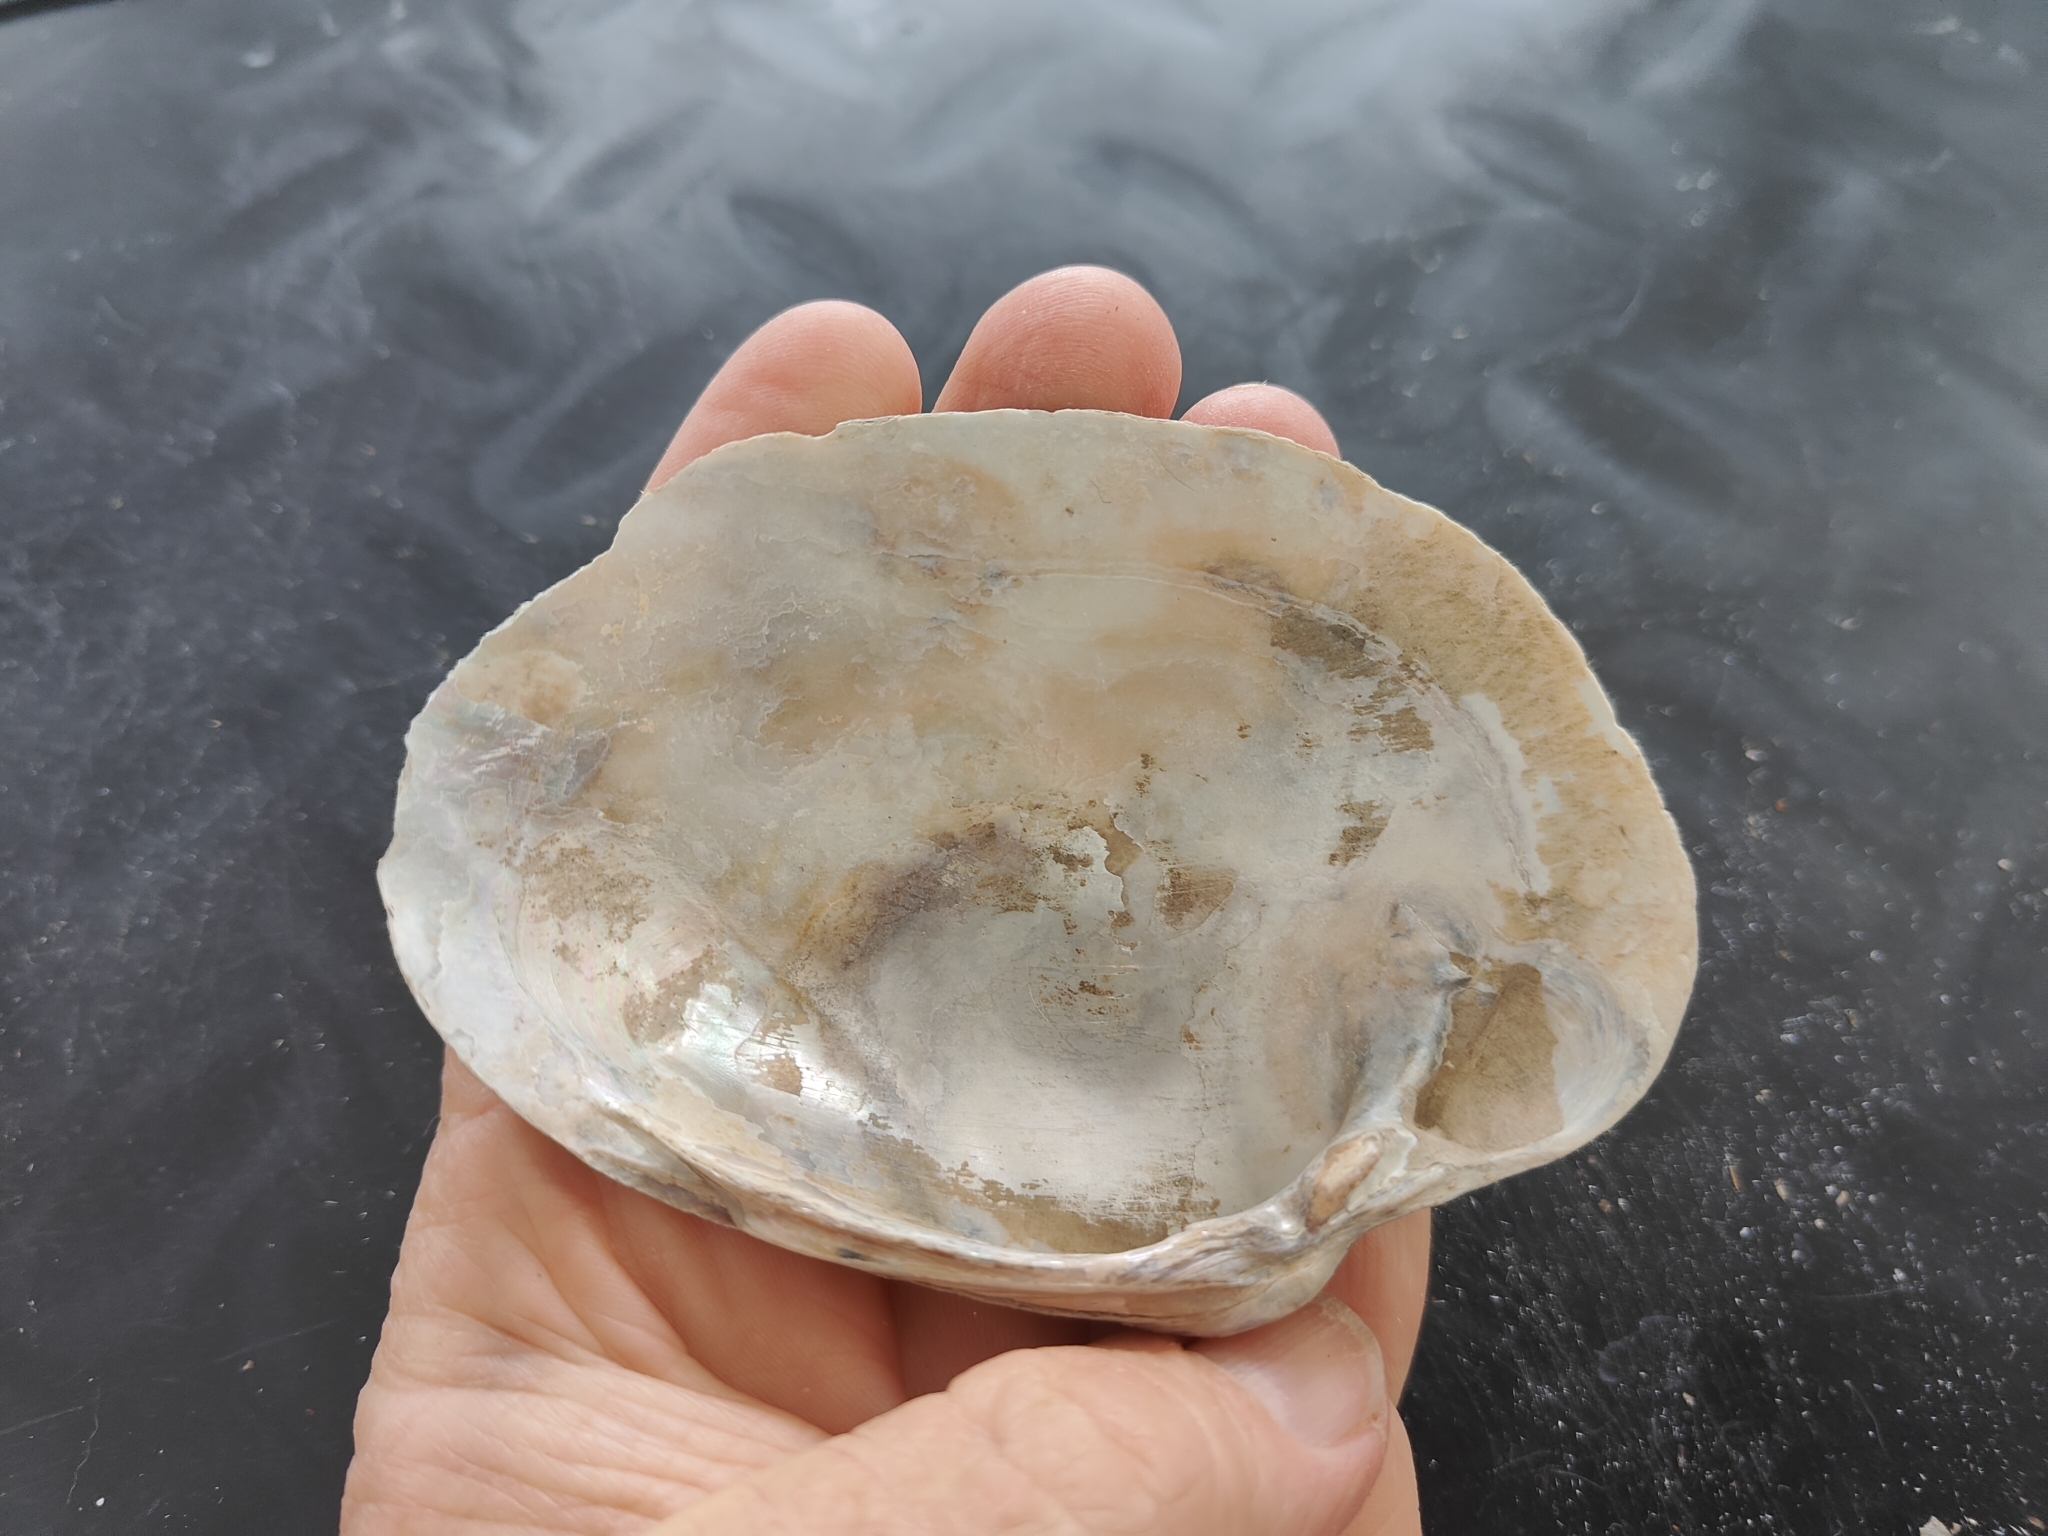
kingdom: Animalia
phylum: Mollusca
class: Bivalvia
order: Unionida
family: Unionidae
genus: Lampsilis
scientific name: Lampsilis cardium
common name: Plain pocketbook
